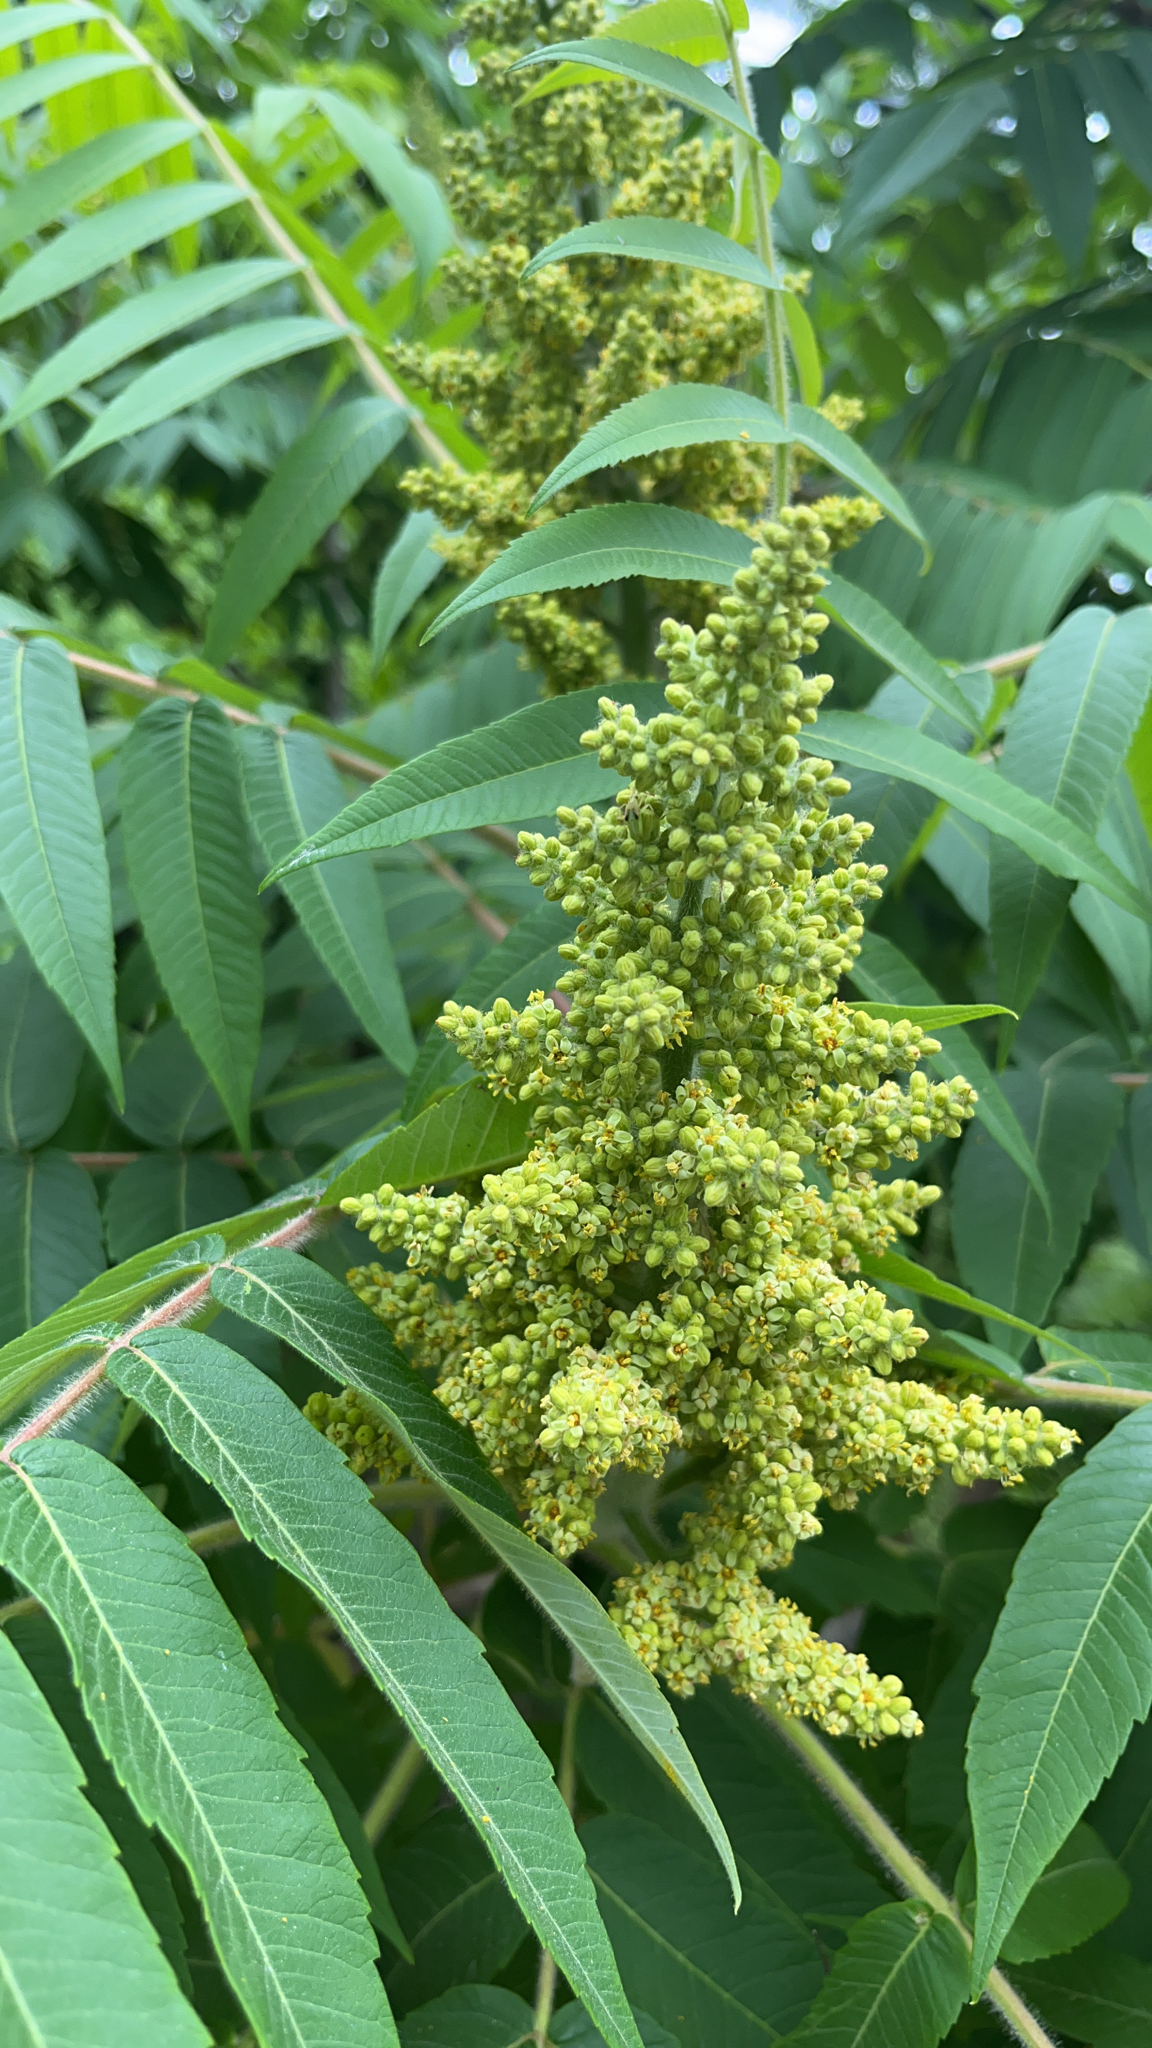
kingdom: Plantae
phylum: Tracheophyta
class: Magnoliopsida
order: Sapindales
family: Anacardiaceae
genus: Rhus
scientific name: Rhus typhina
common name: Staghorn sumac
